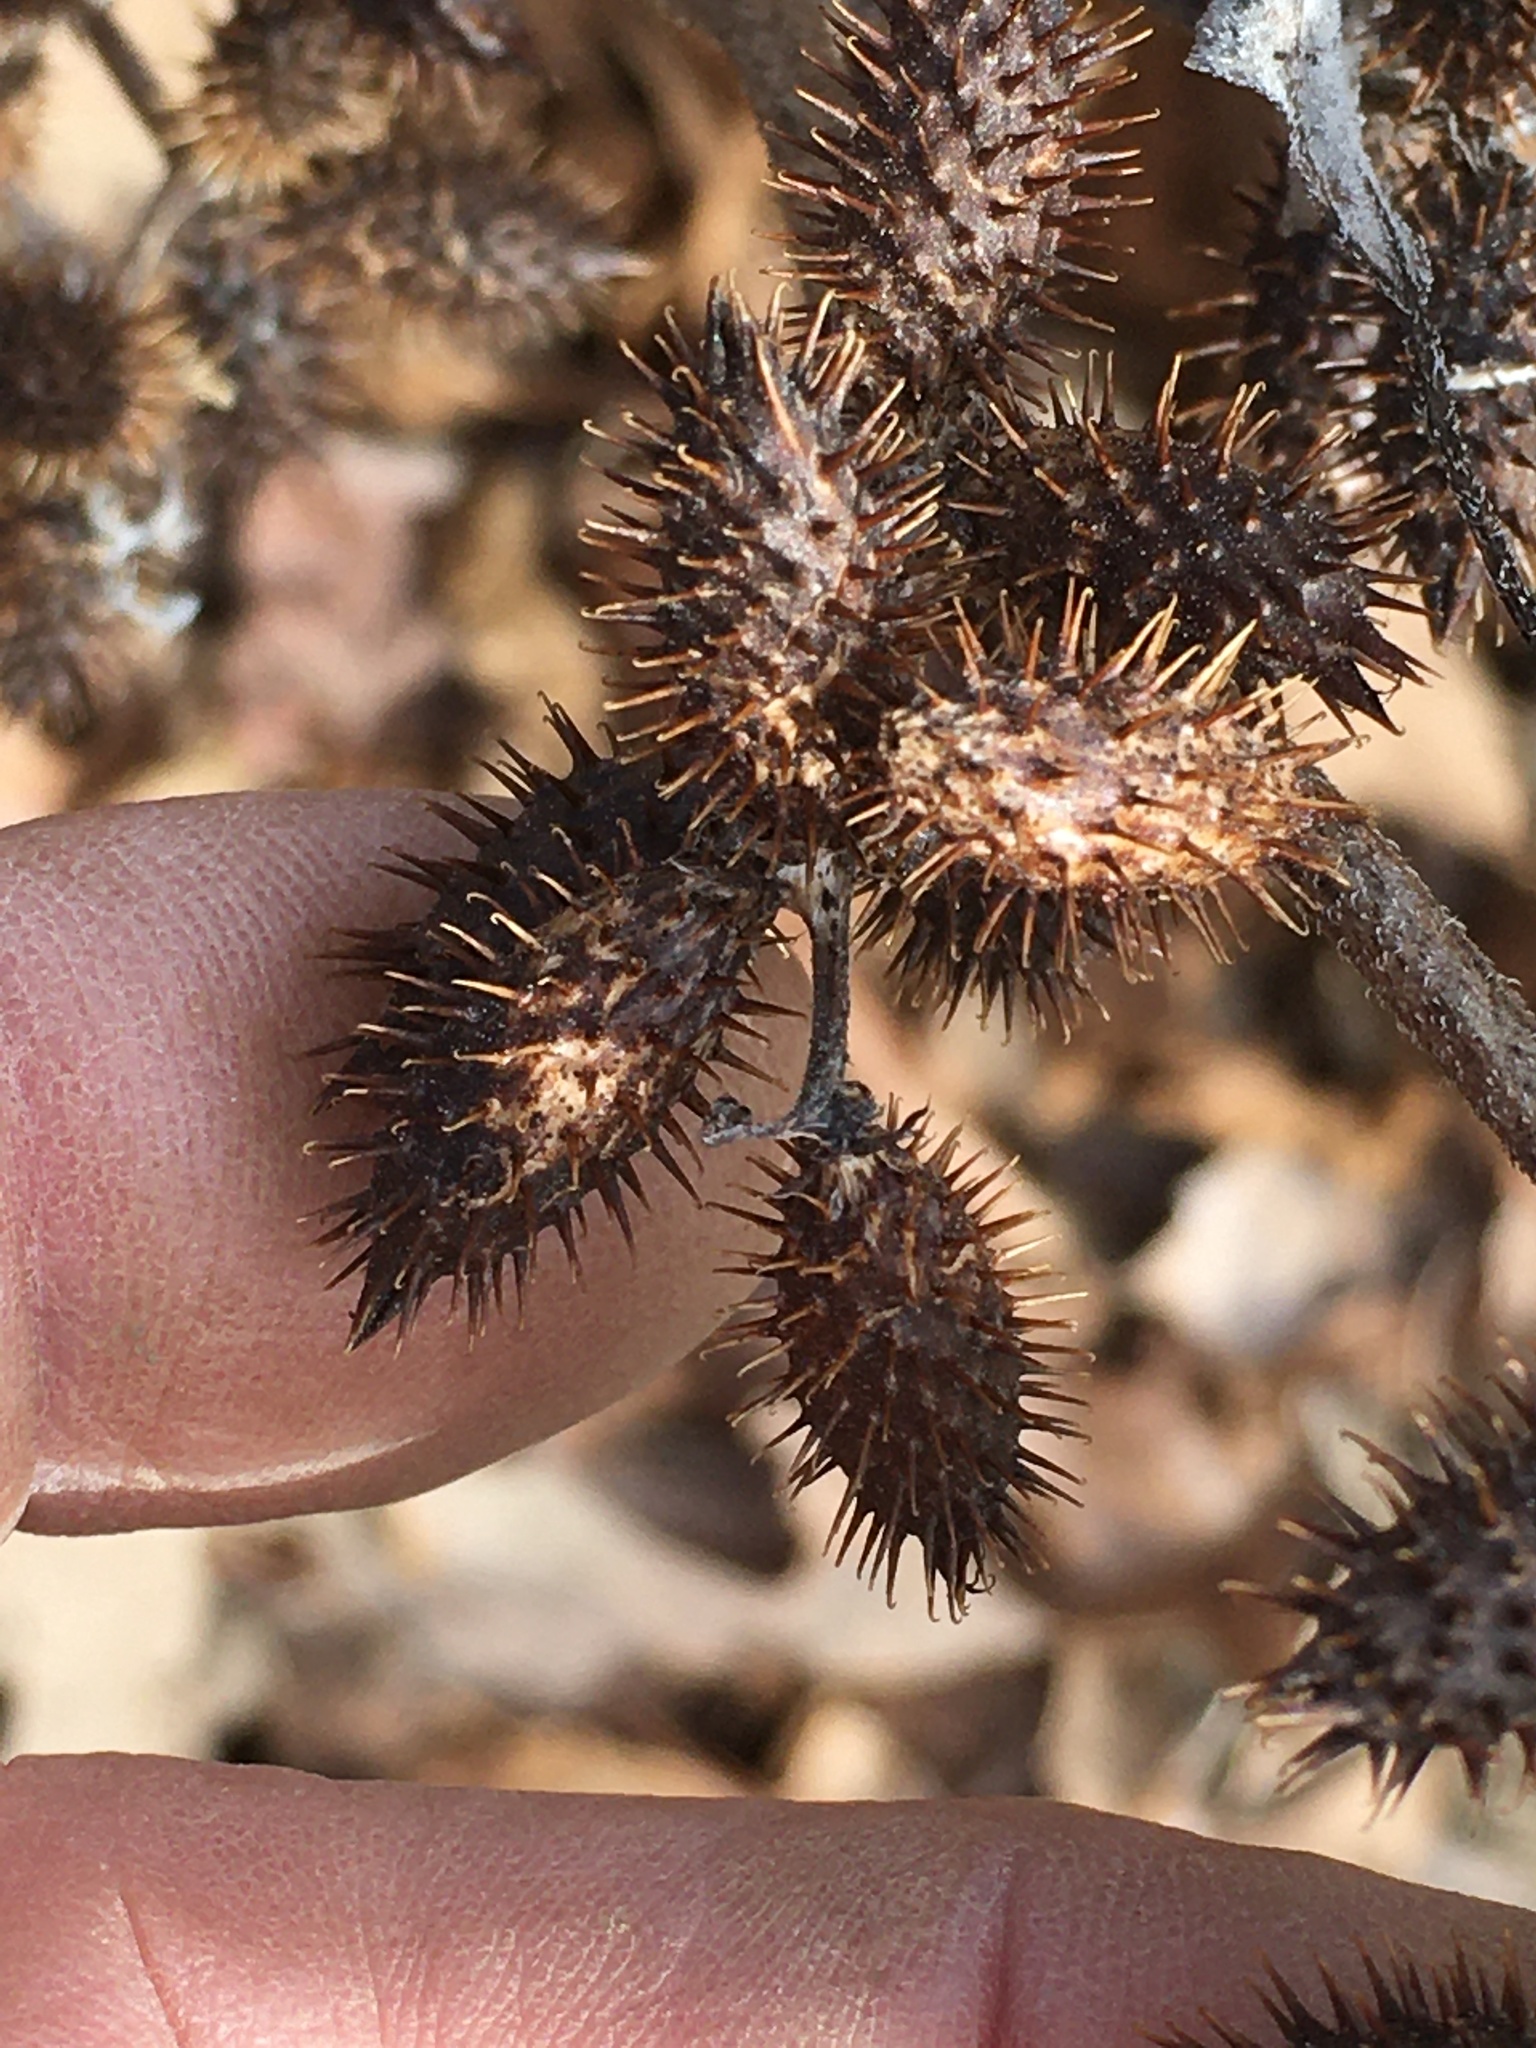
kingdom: Plantae
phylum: Tracheophyta
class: Magnoliopsida
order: Asterales
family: Asteraceae
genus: Xanthium
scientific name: Xanthium strumarium
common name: Rough cocklebur
